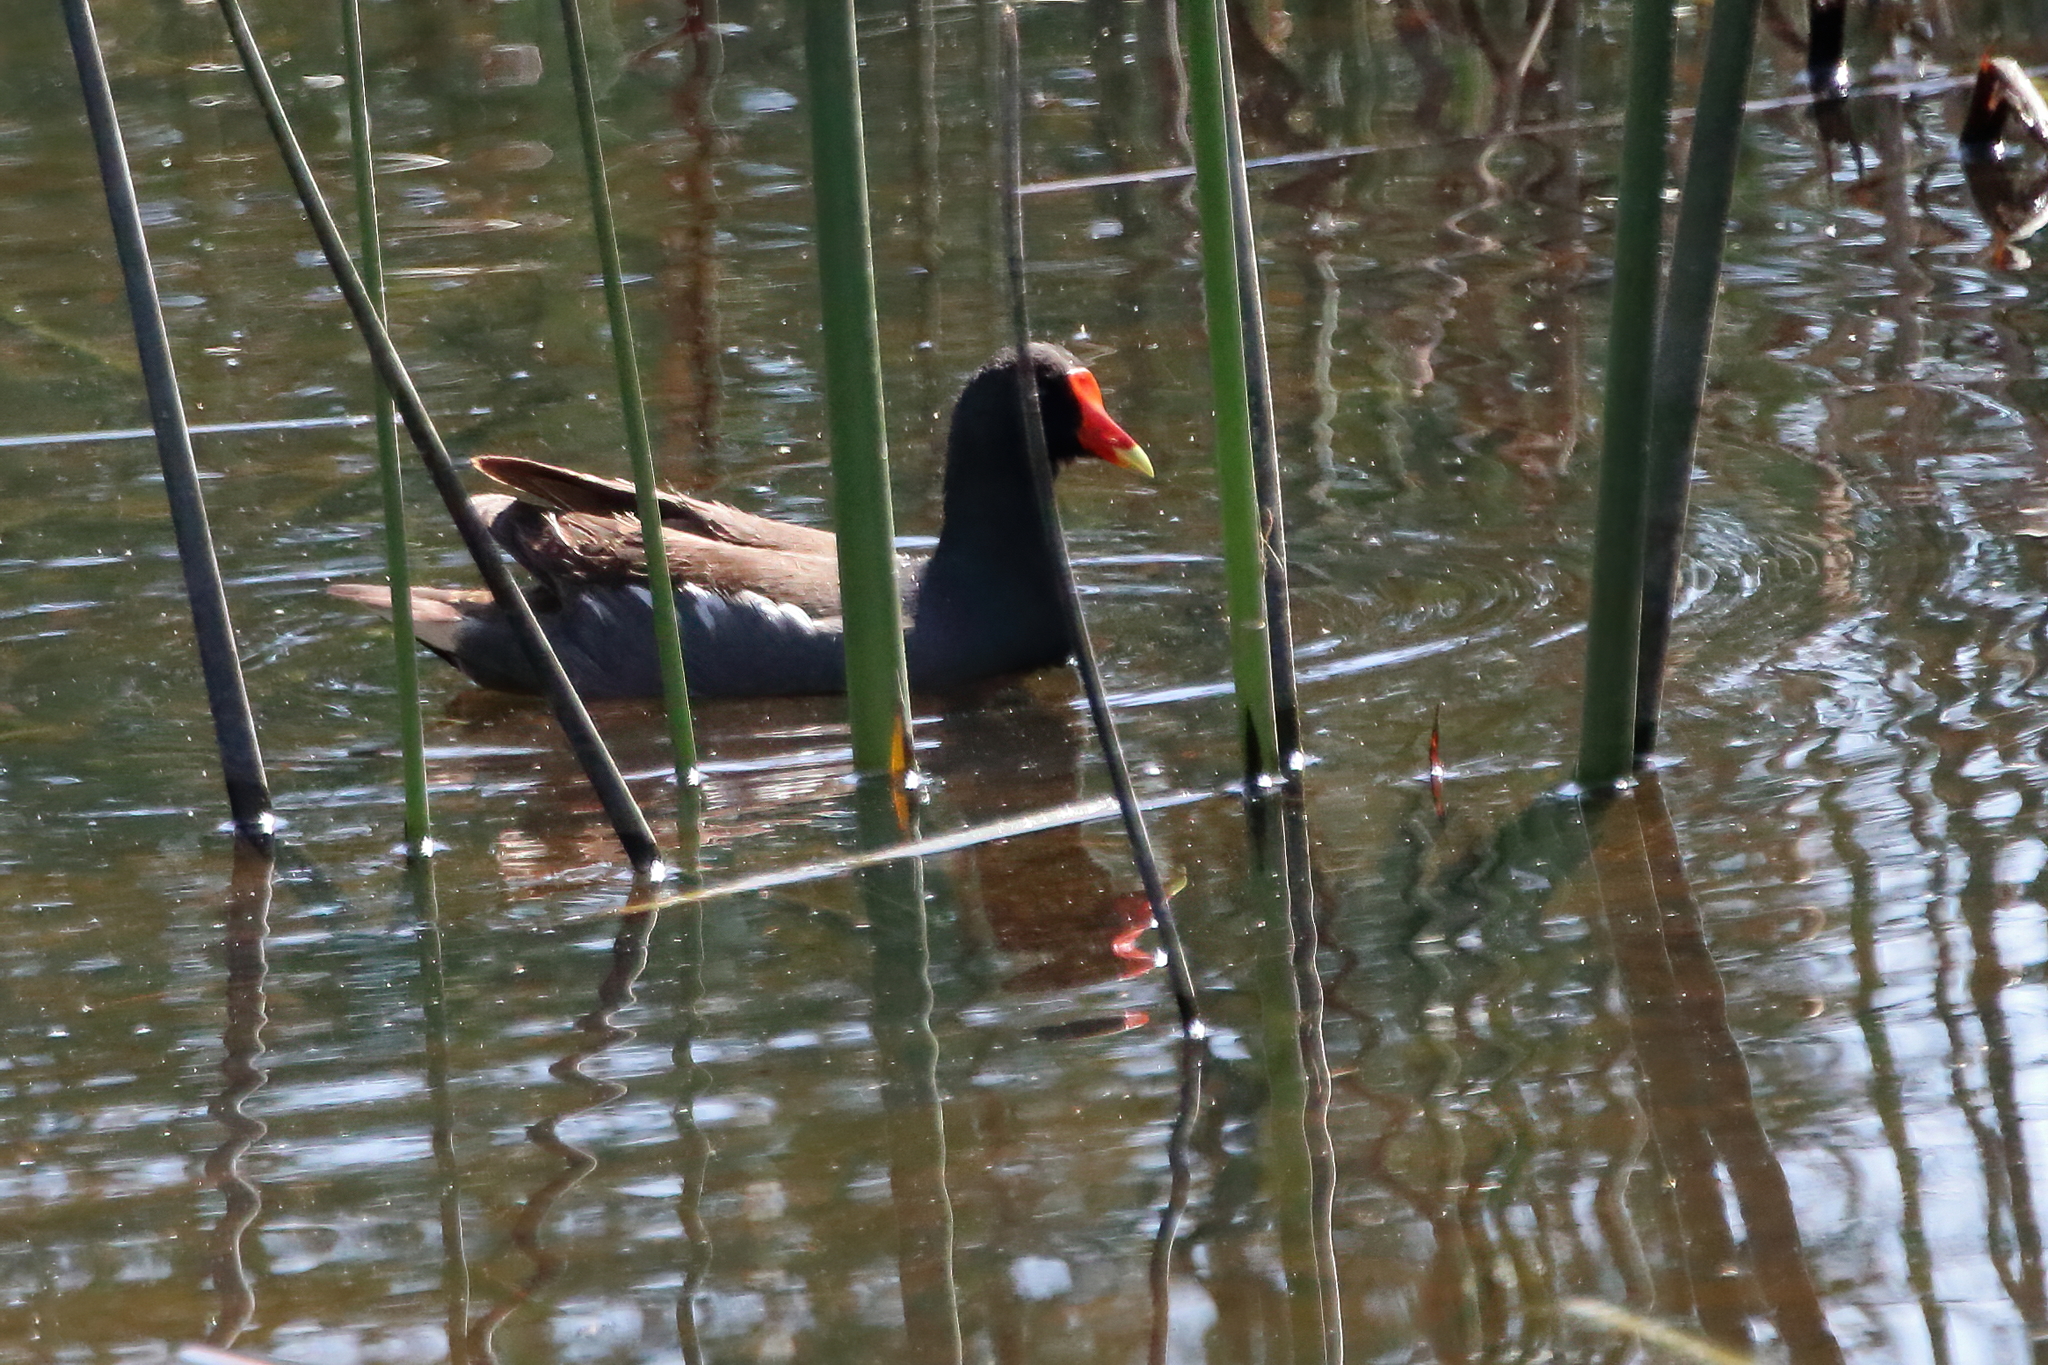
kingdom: Animalia
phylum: Chordata
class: Aves
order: Gruiformes
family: Rallidae
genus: Gallinula
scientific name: Gallinula chloropus
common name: Common moorhen
